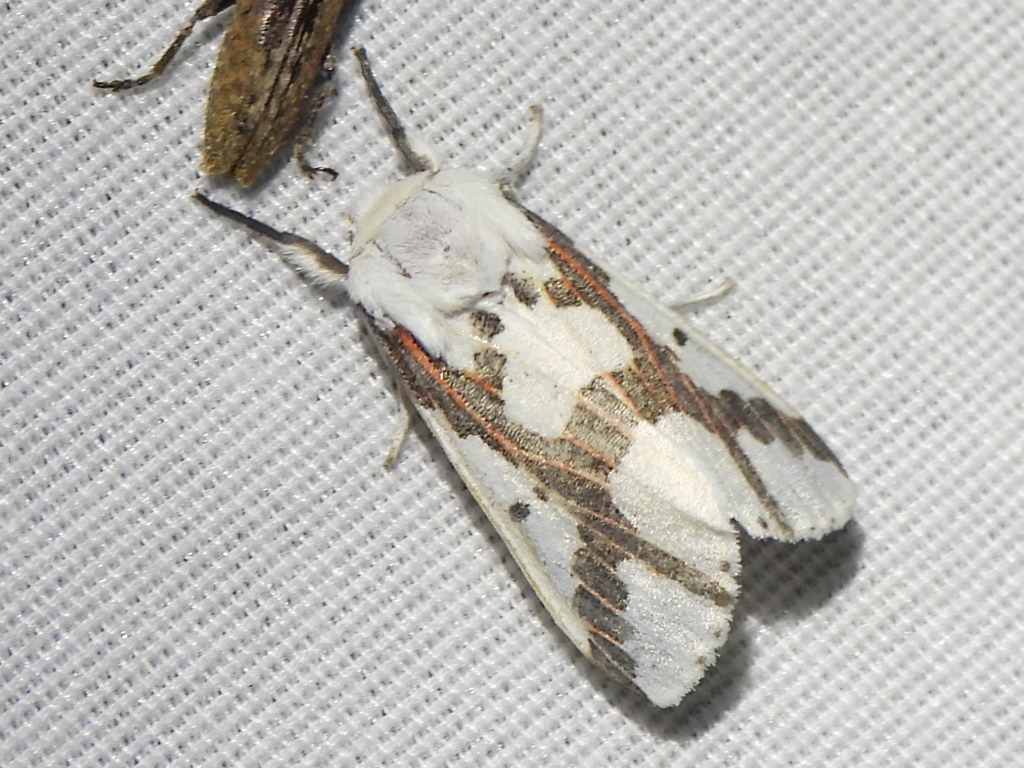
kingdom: Animalia
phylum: Arthropoda
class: Insecta
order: Lepidoptera
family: Erebidae
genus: Euerythra
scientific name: Euerythra phasma
